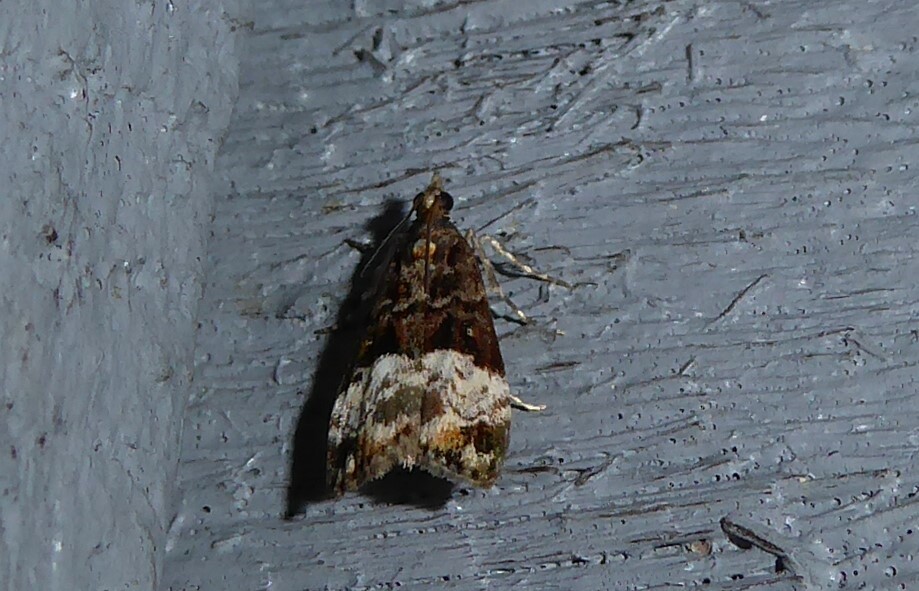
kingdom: Animalia
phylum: Arthropoda
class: Insecta
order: Lepidoptera
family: Crambidae
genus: Scoparia
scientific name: Scoparia minusculalis
